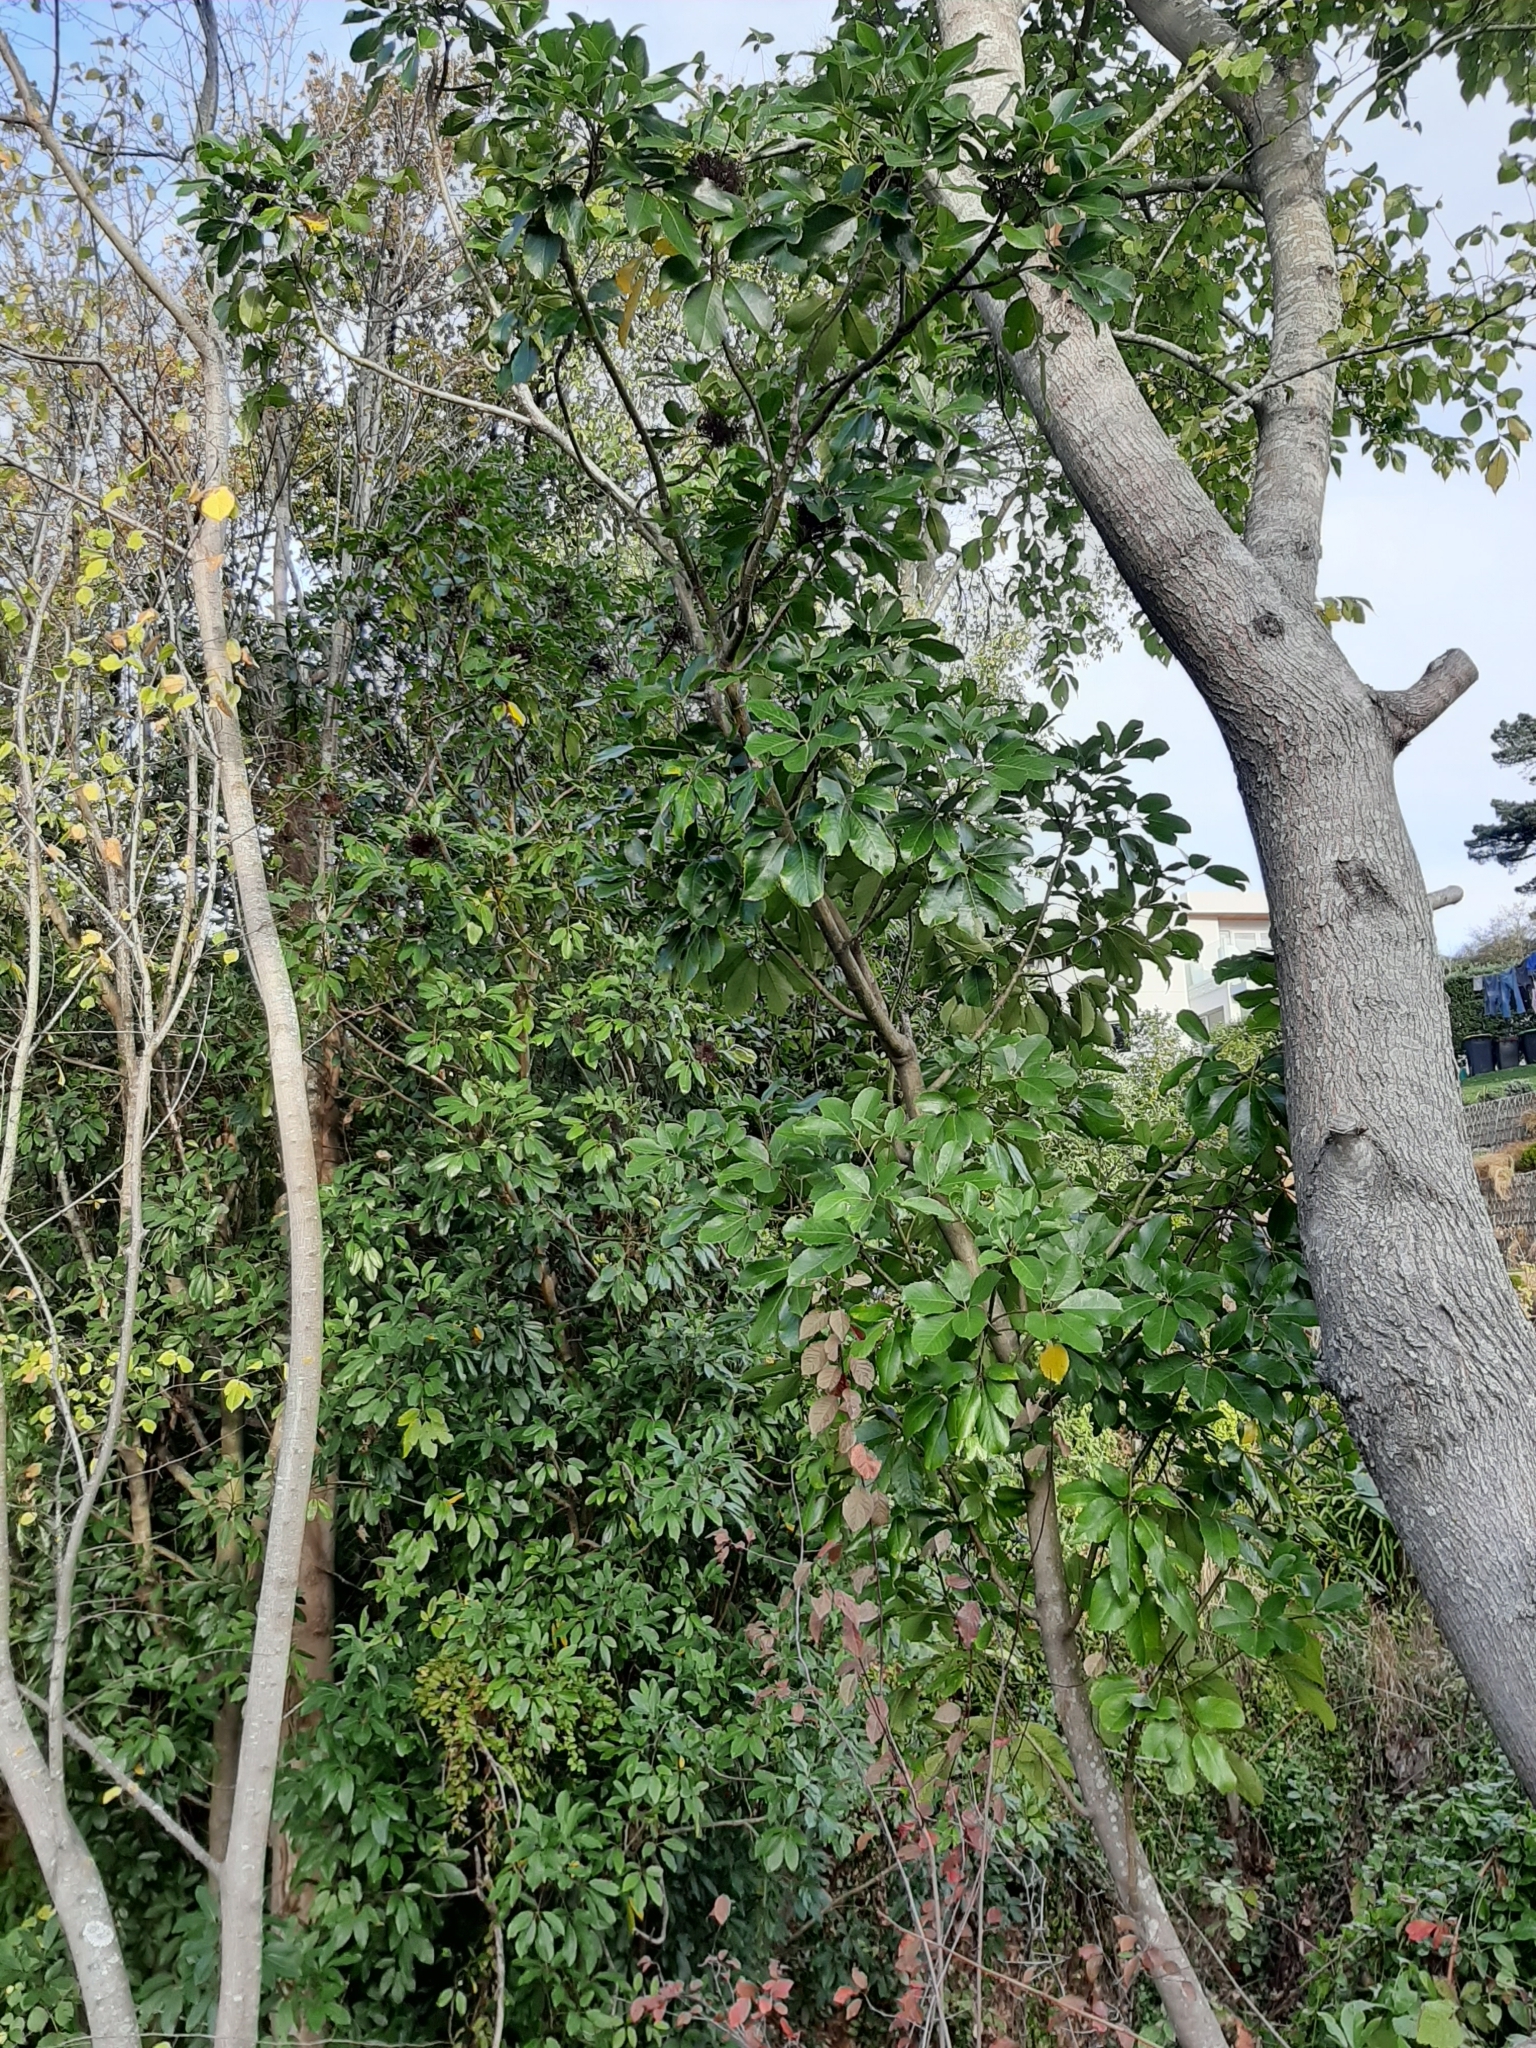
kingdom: Plantae
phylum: Tracheophyta
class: Magnoliopsida
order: Apiales
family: Araliaceae
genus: Neopanax
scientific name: Neopanax arboreus
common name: Five-fingers
